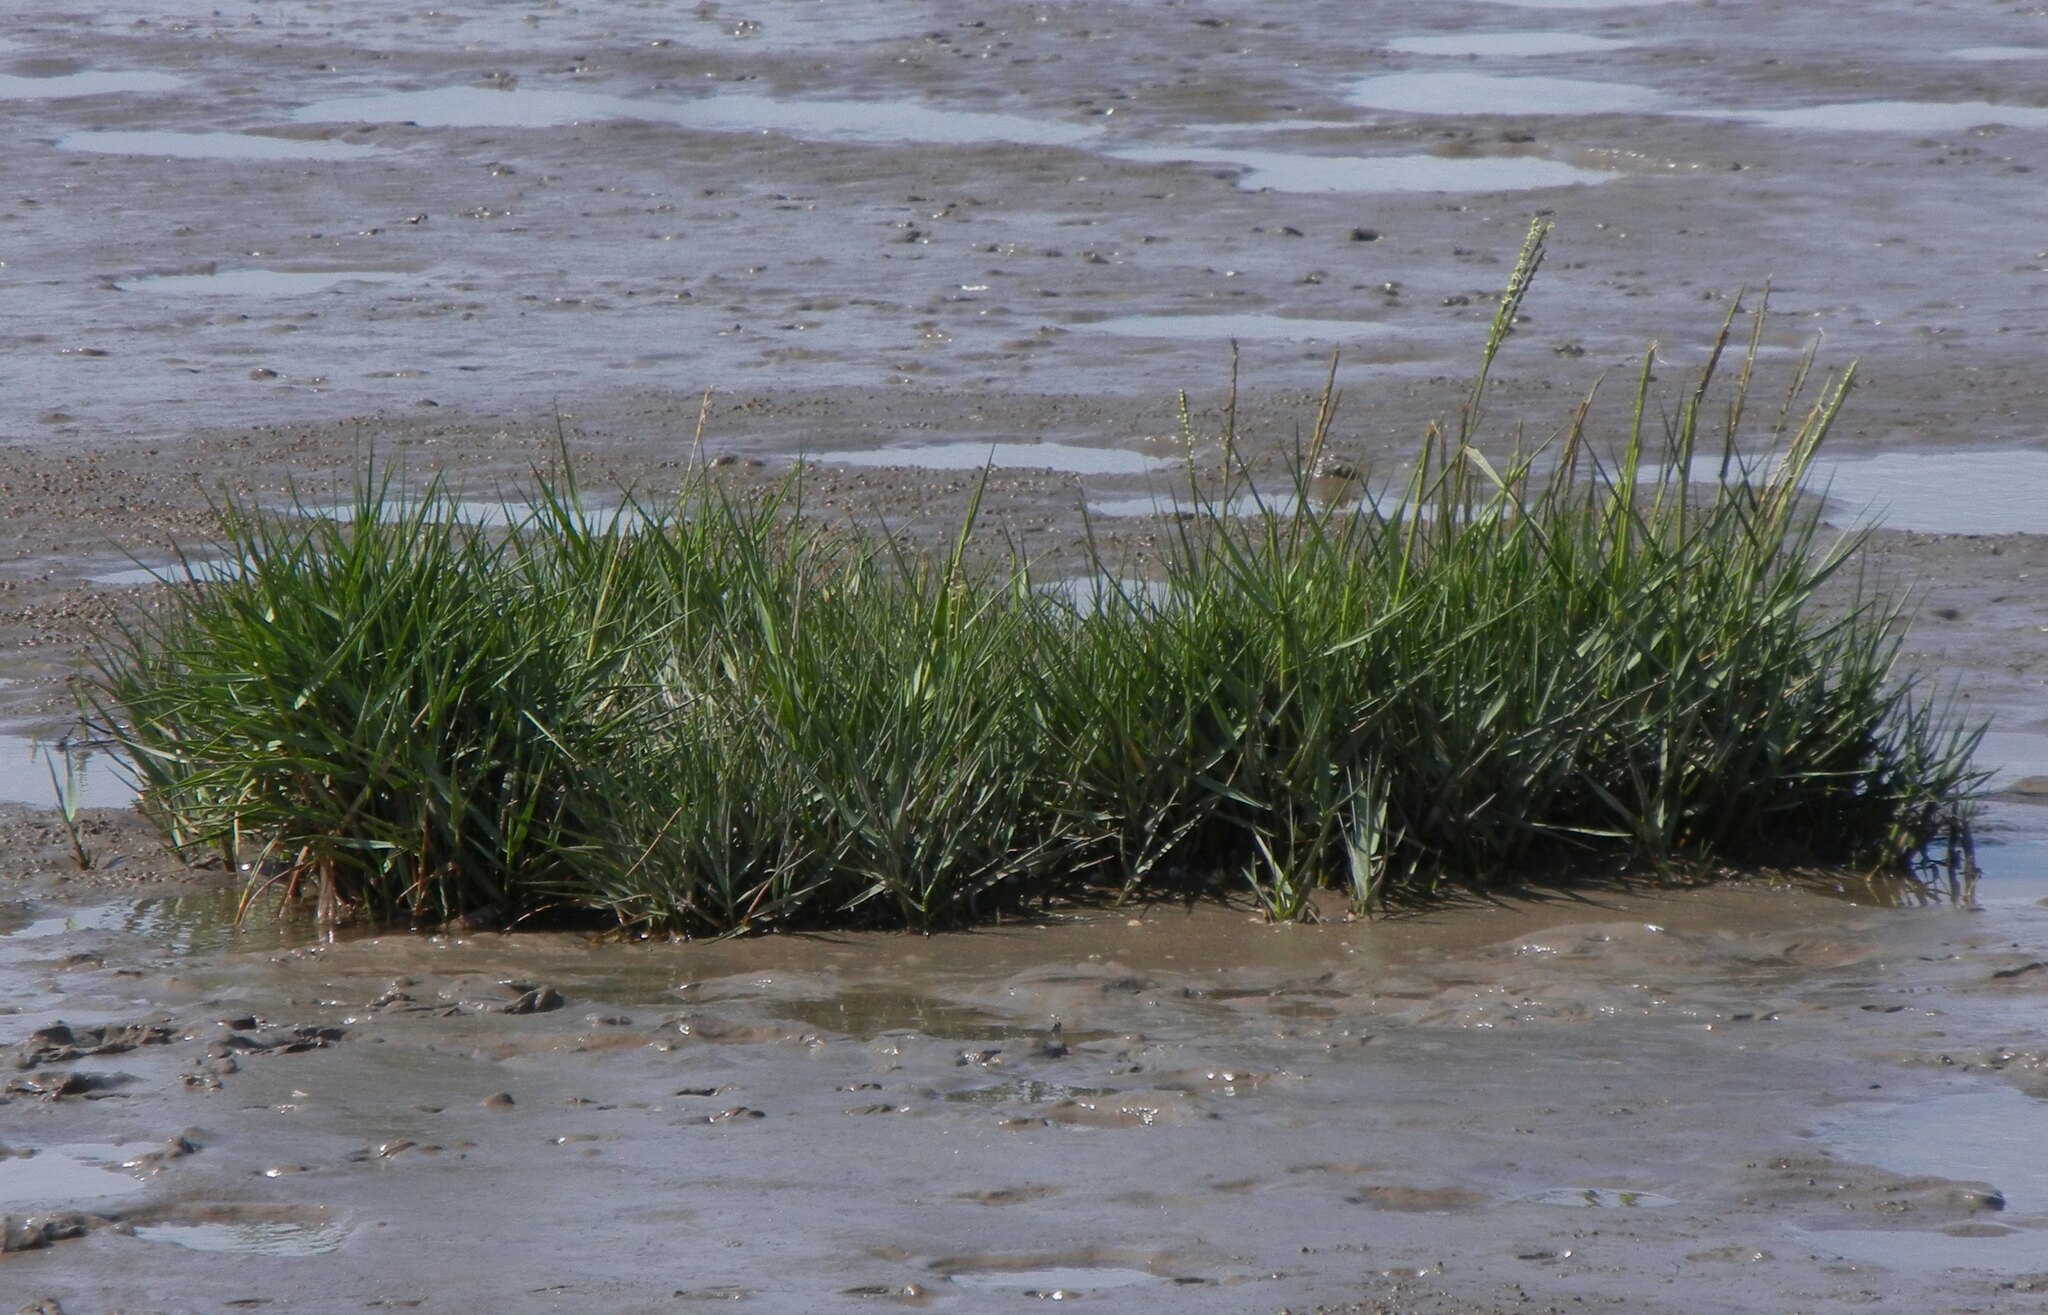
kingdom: Plantae
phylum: Tracheophyta
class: Liliopsida
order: Poales
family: Poaceae
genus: Sporobolus
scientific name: Sporobolus anglicus
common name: English cordgrass
